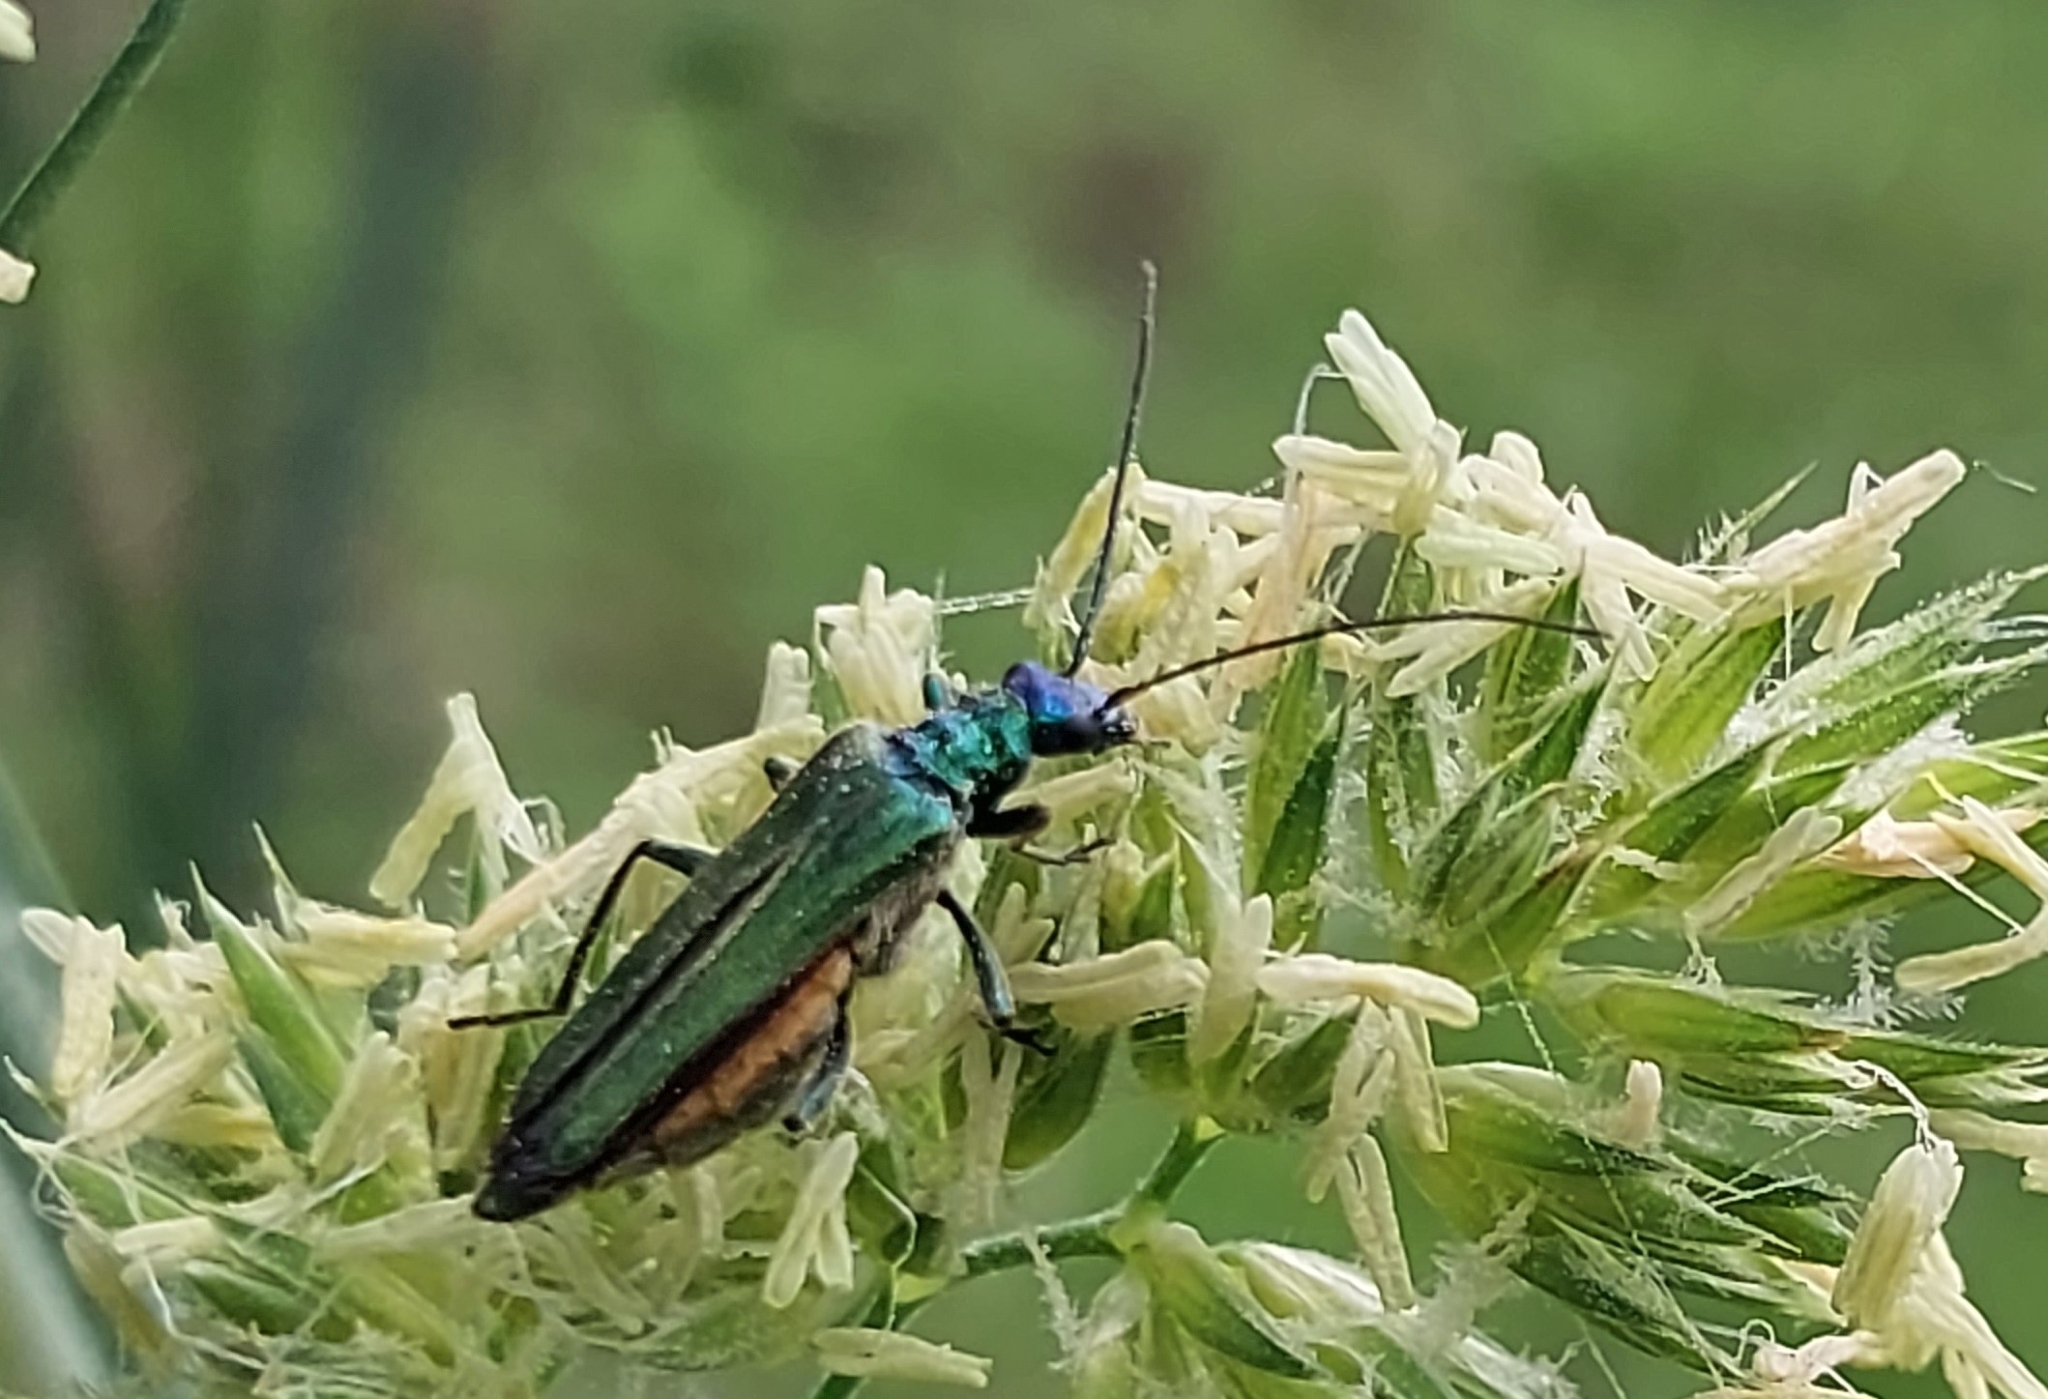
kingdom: Animalia
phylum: Arthropoda
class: Insecta
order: Coleoptera
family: Oedemeridae
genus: Oedemera
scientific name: Oedemera nobilis
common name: Swollen-thighed beetle
